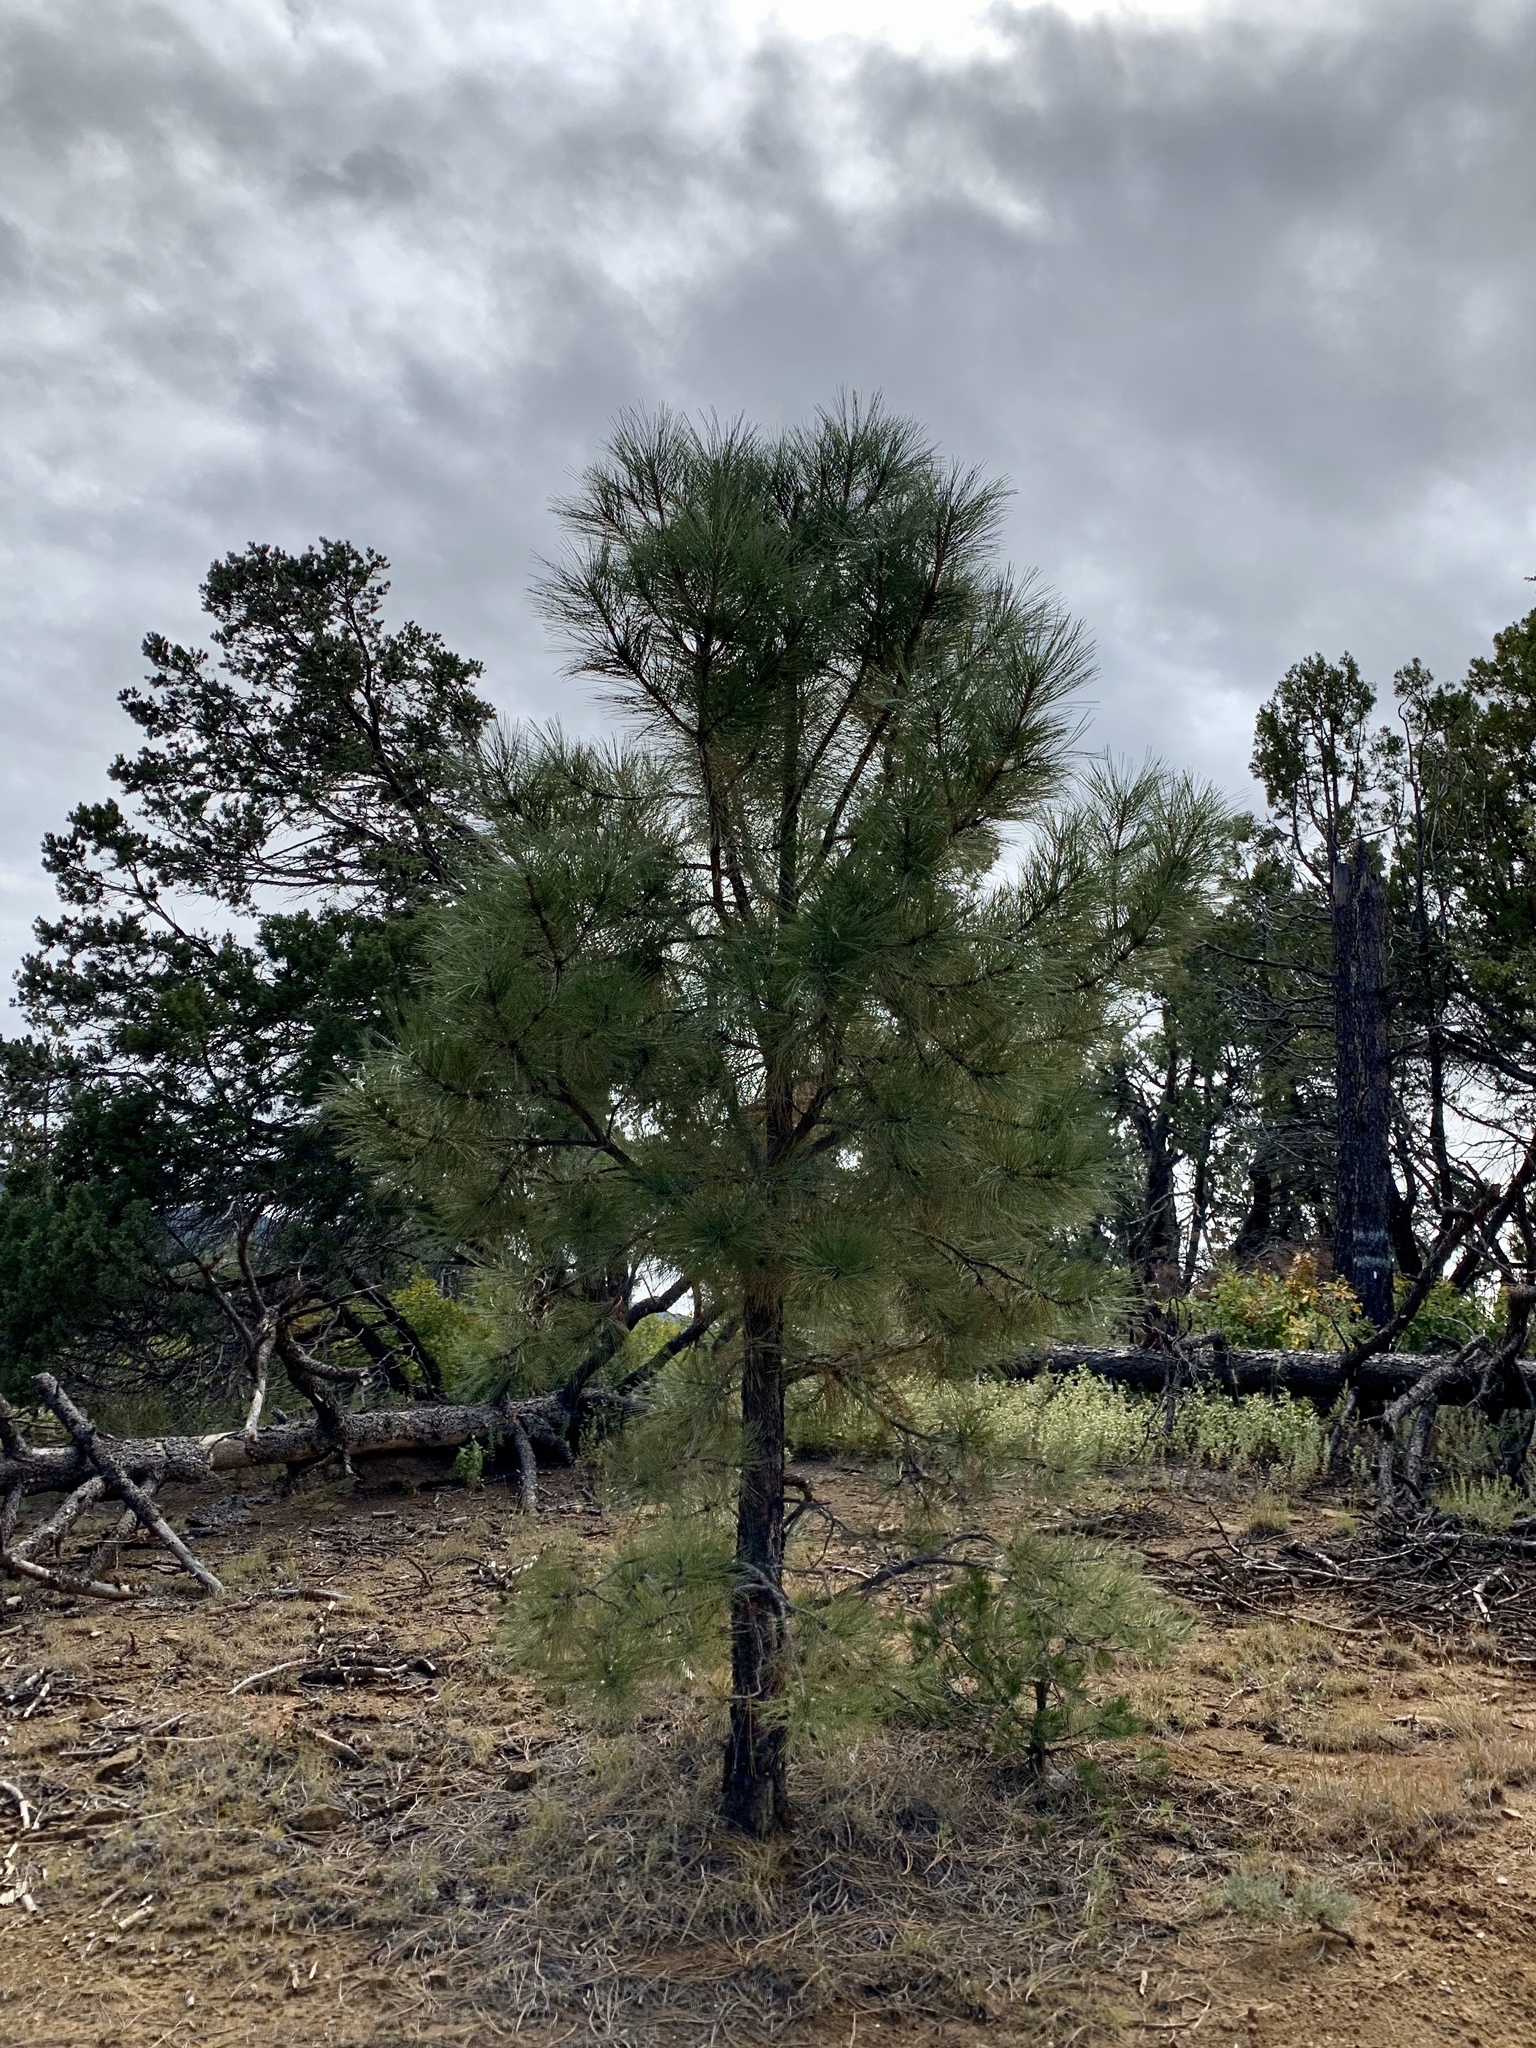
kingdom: Plantae
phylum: Tracheophyta
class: Pinopsida
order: Pinales
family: Pinaceae
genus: Pinus
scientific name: Pinus ponderosa
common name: Western yellow-pine
